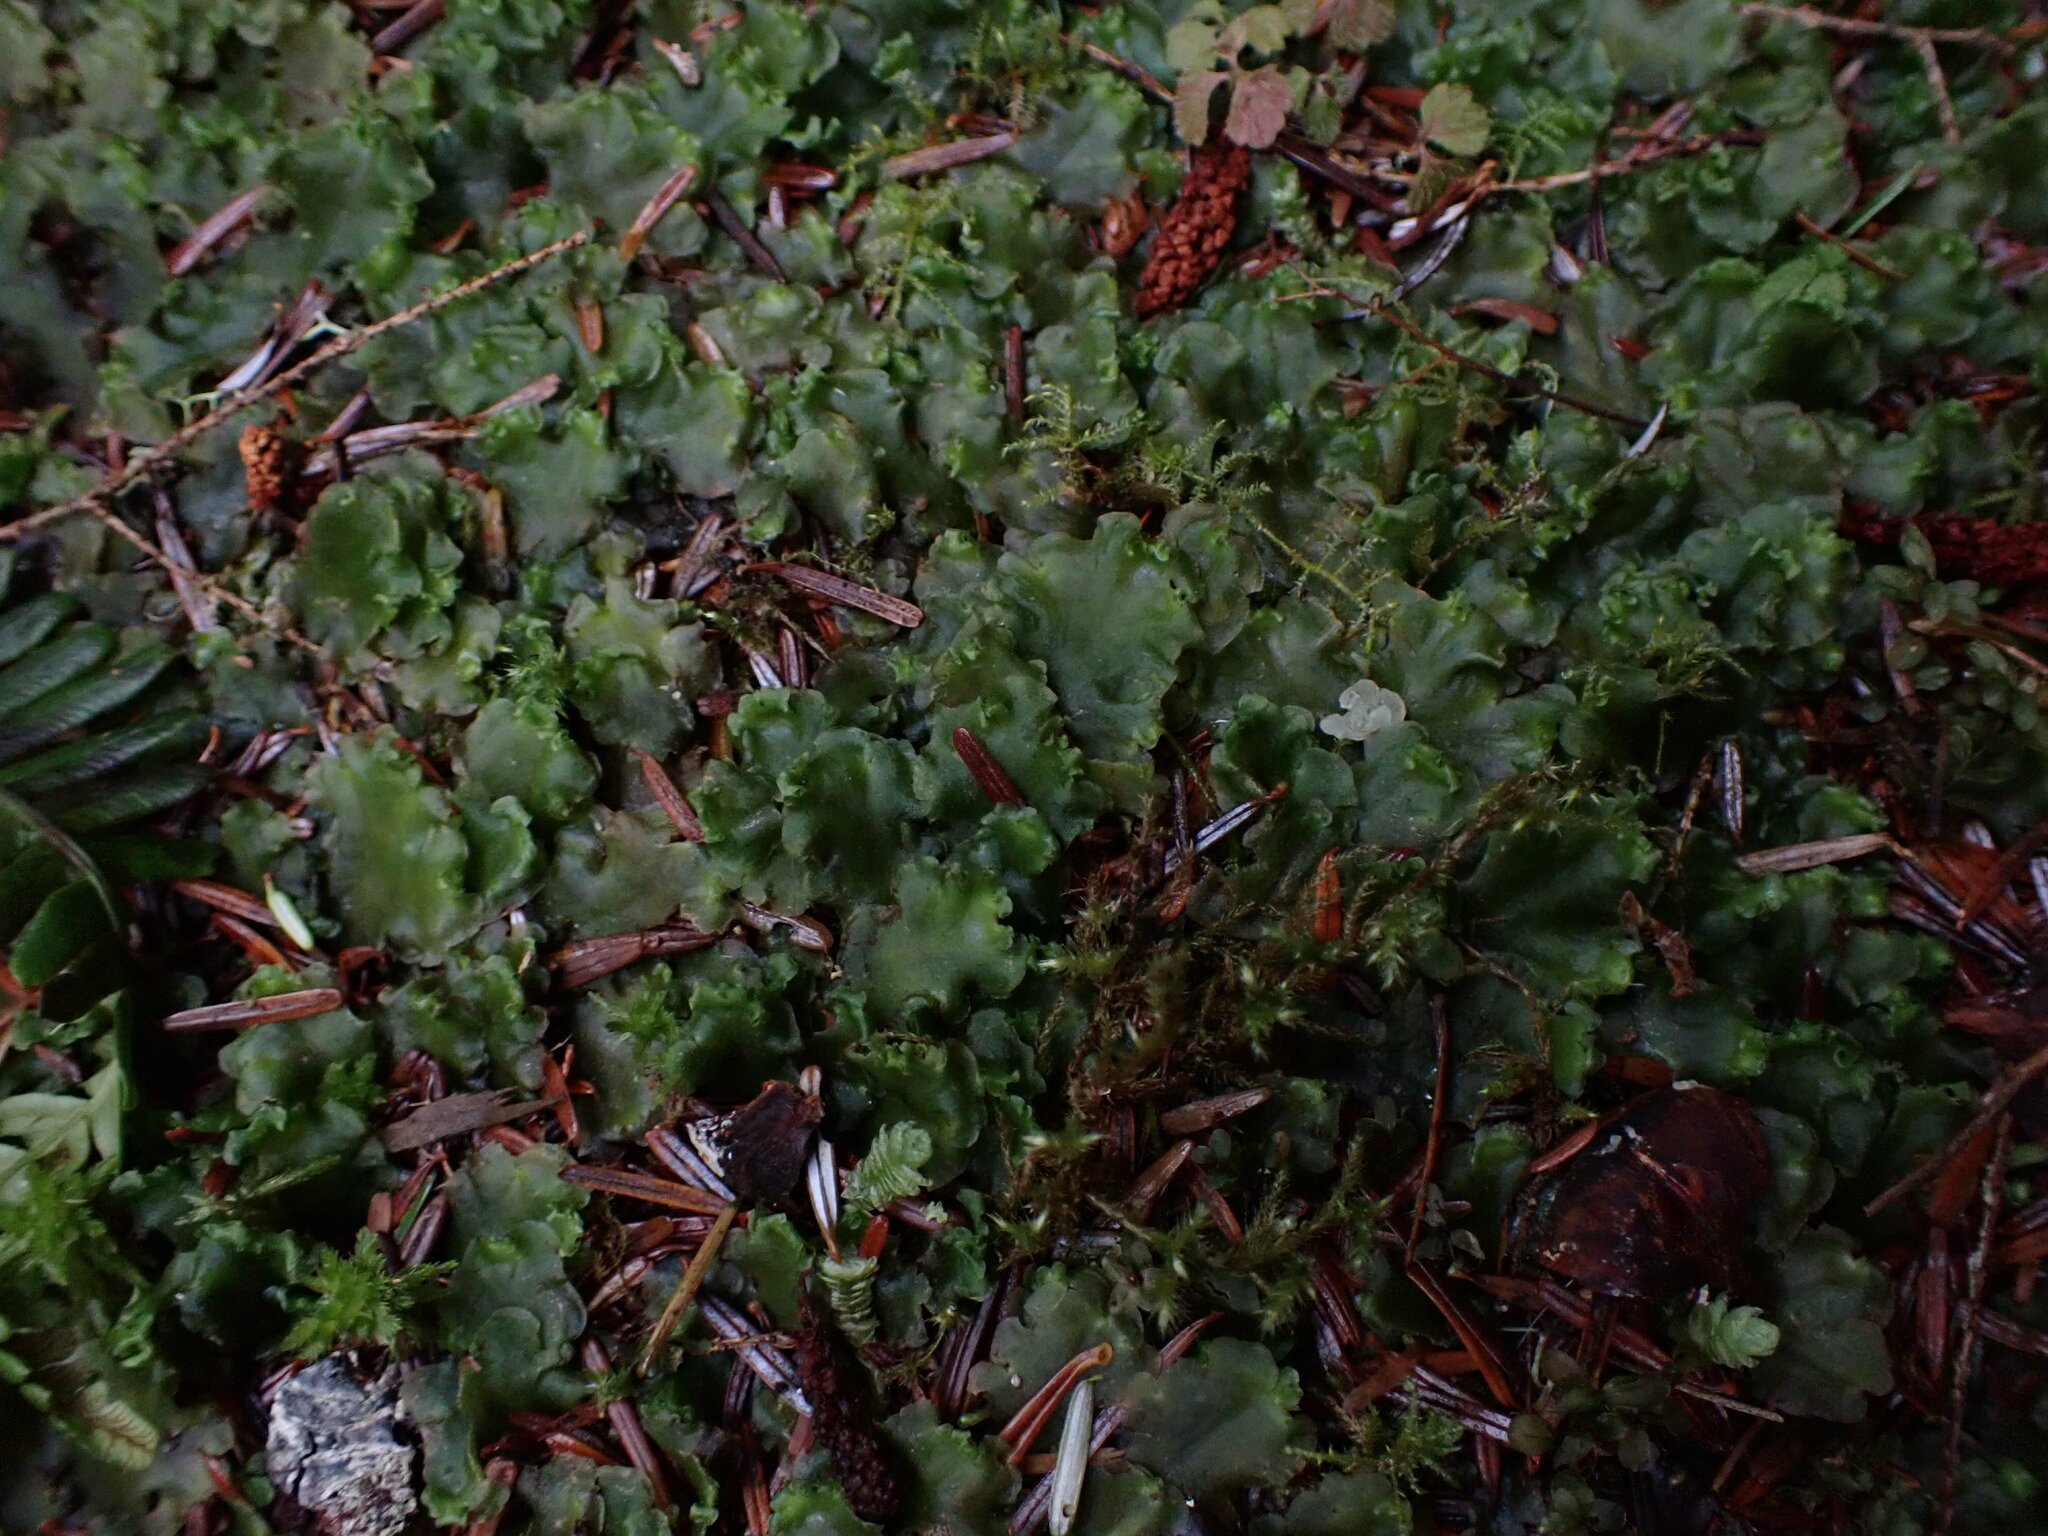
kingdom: Plantae
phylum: Marchantiophyta
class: Jungermanniopsida
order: Pelliales
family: Pelliaceae
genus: Pellia
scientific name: Pellia neesiana
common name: Nees  pellia
